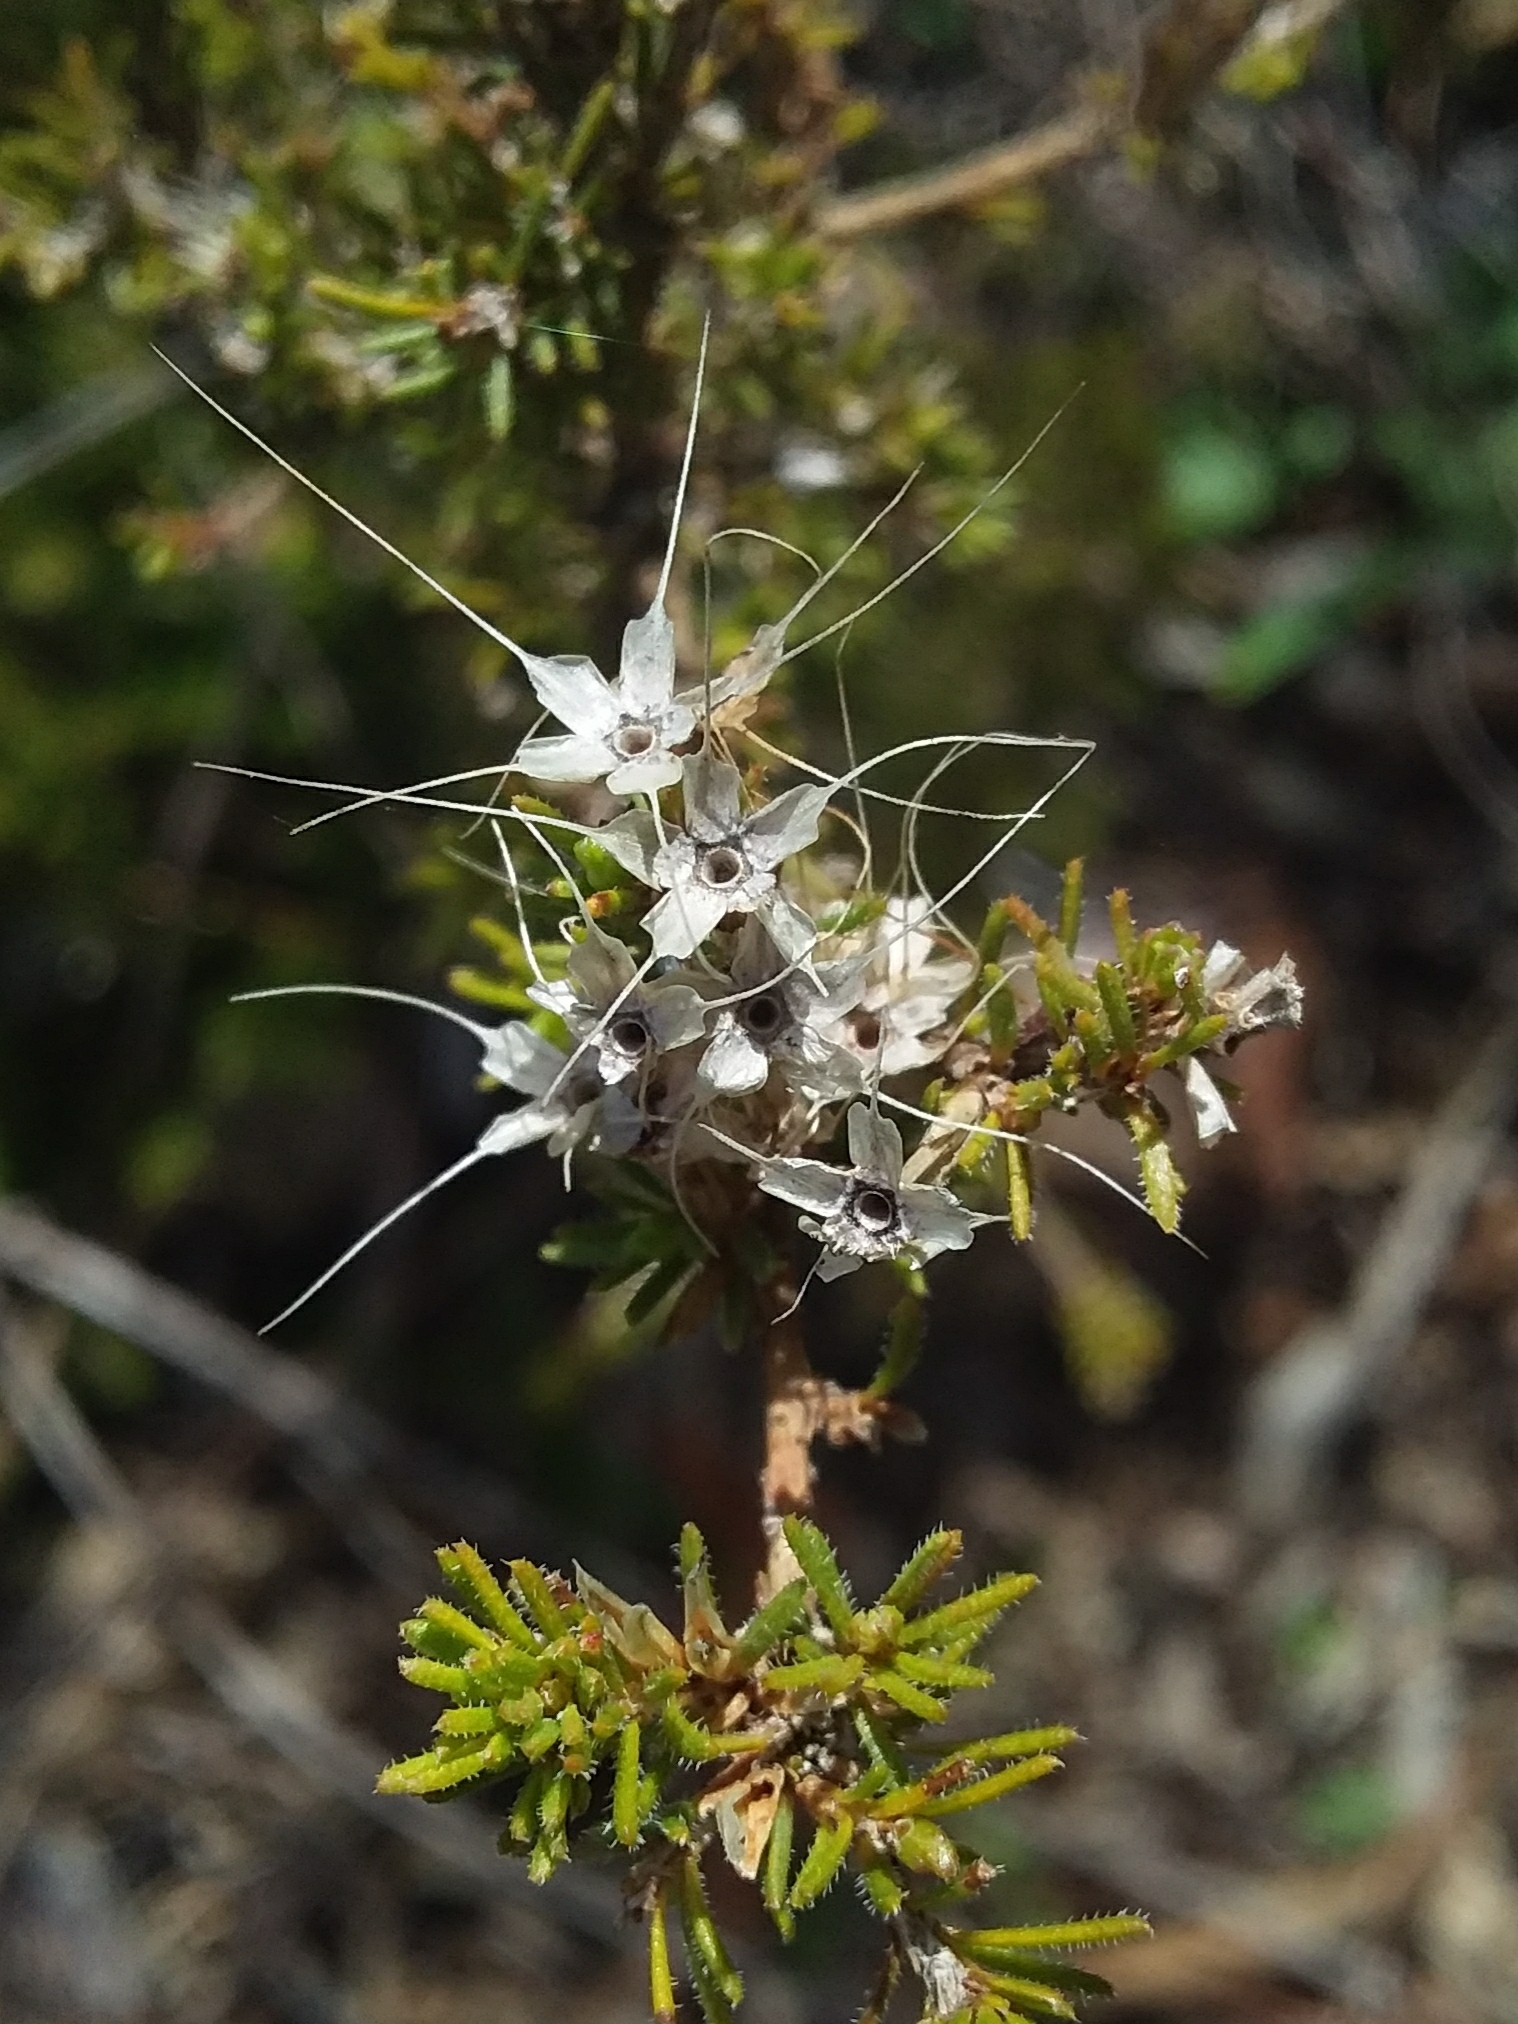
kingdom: Plantae
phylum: Tracheophyta
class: Magnoliopsida
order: Myrtales
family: Myrtaceae
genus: Calytrix
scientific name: Calytrix tetragona
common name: Common fringe myrtle
